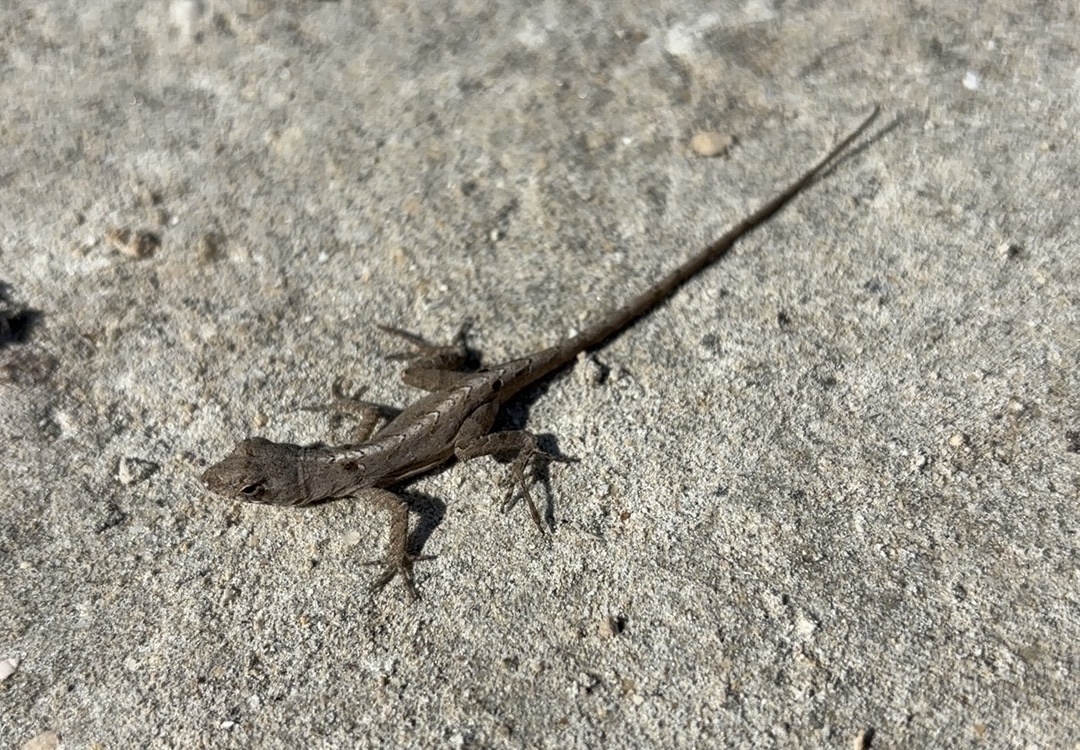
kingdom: Animalia
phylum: Chordata
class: Squamata
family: Dactyloidae
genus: Anolis
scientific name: Anolis sagrei
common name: Brown anole
